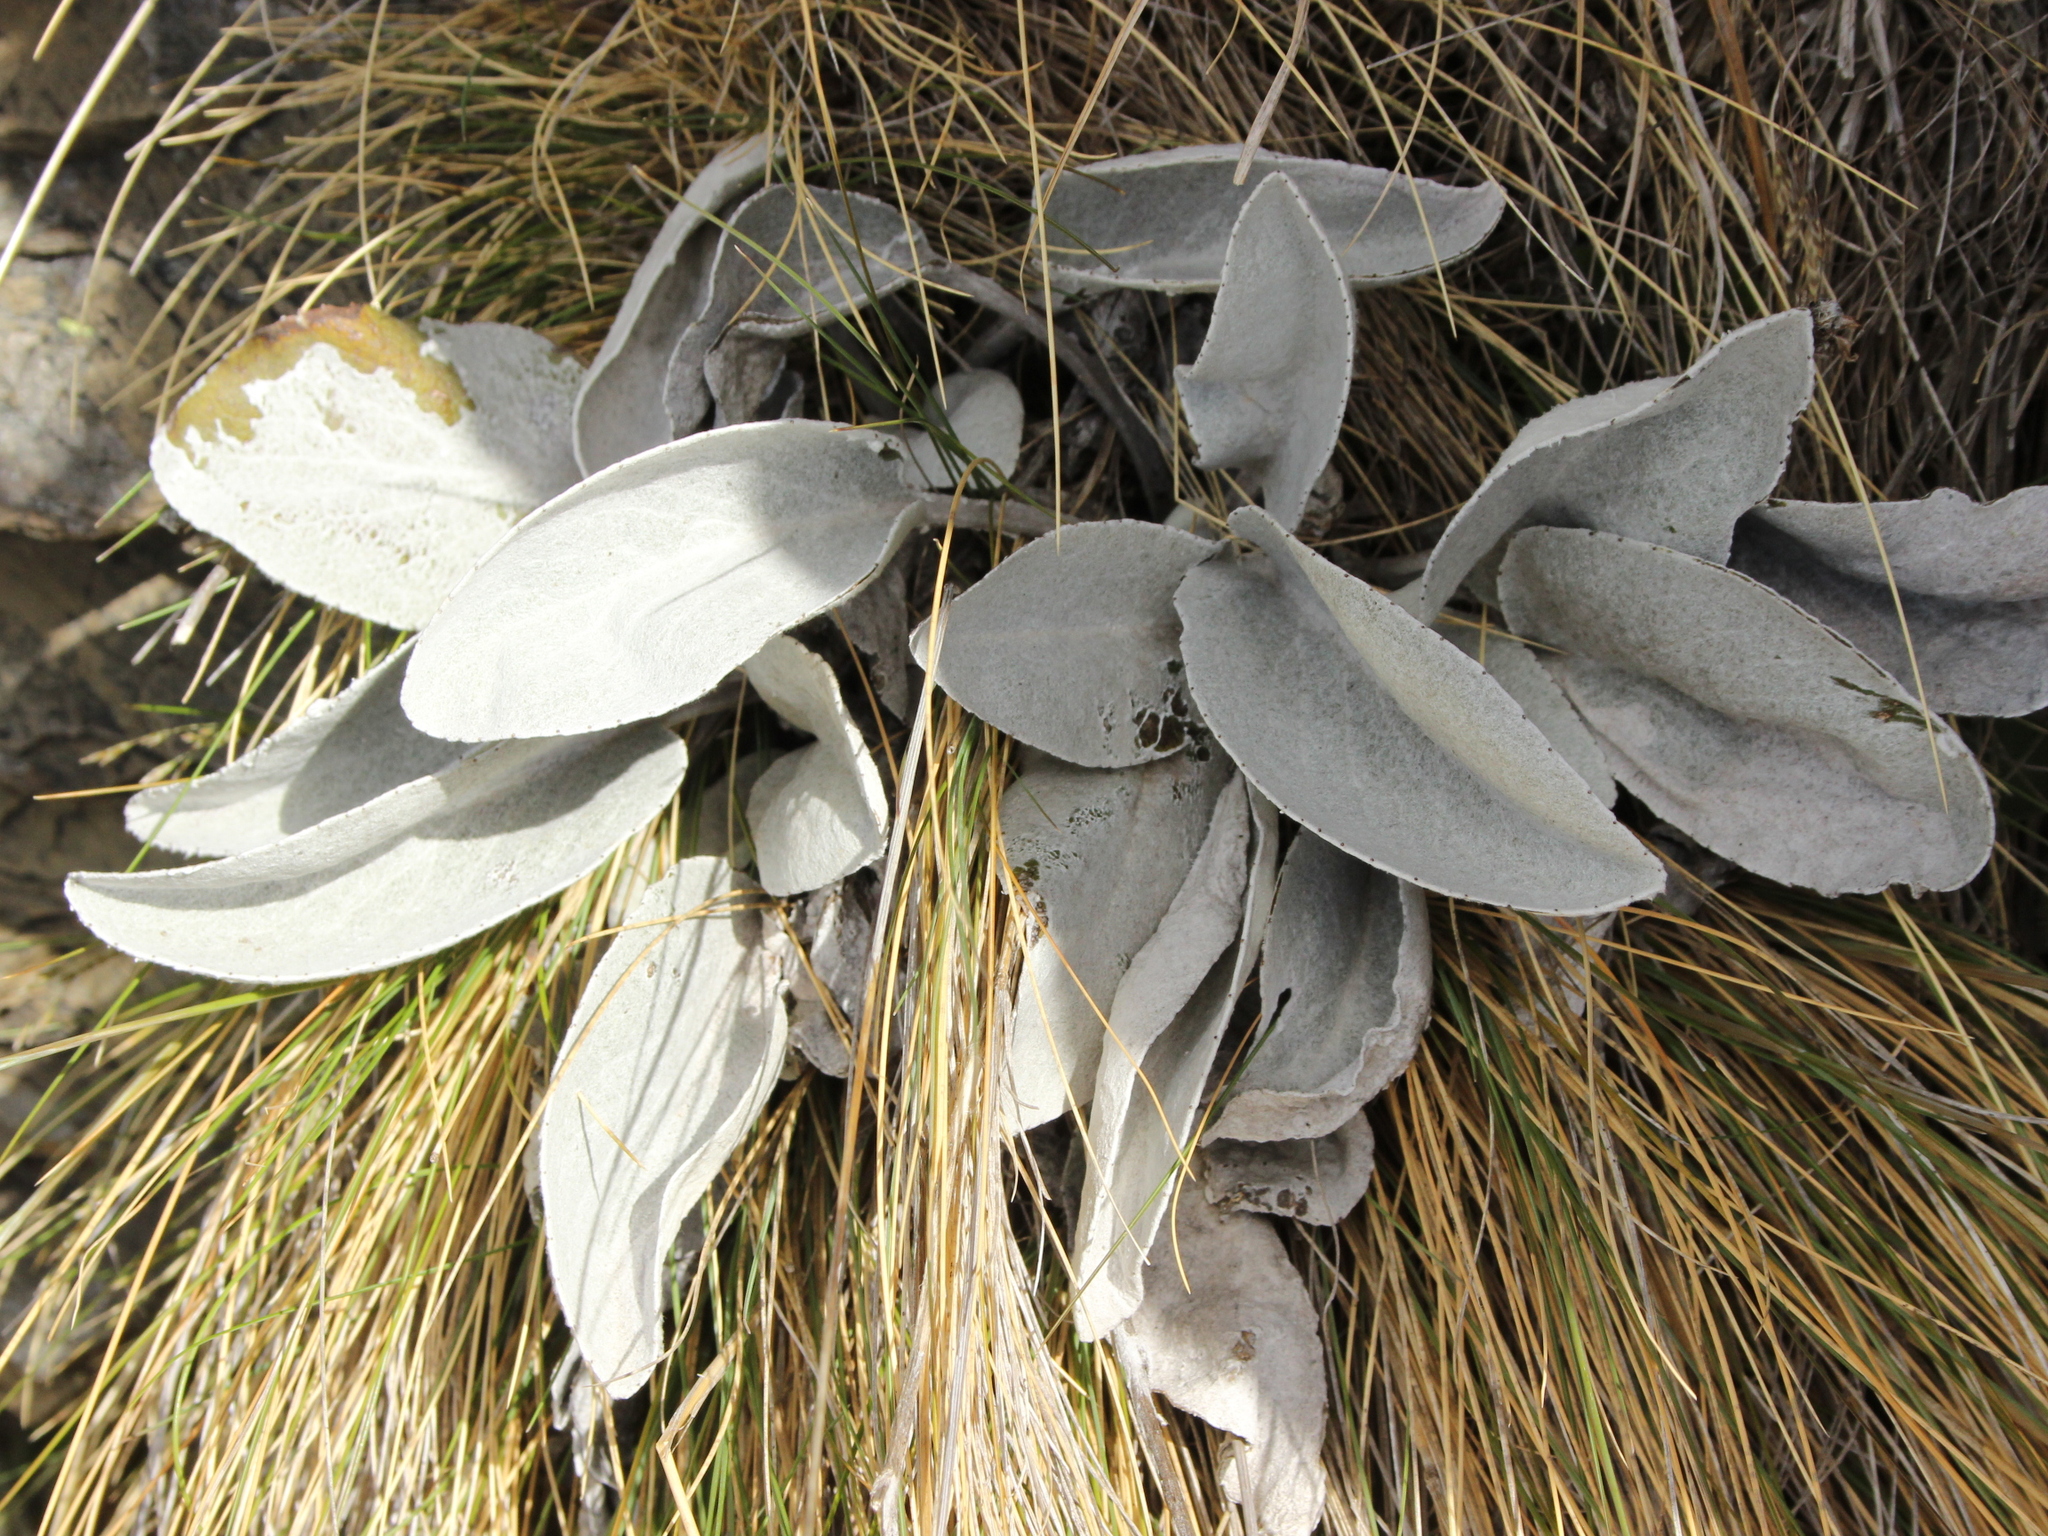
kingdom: Plantae
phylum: Tracheophyta
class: Magnoliopsida
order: Asterales
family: Asteraceae
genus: Brachyglottis
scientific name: Brachyglottis haastii
